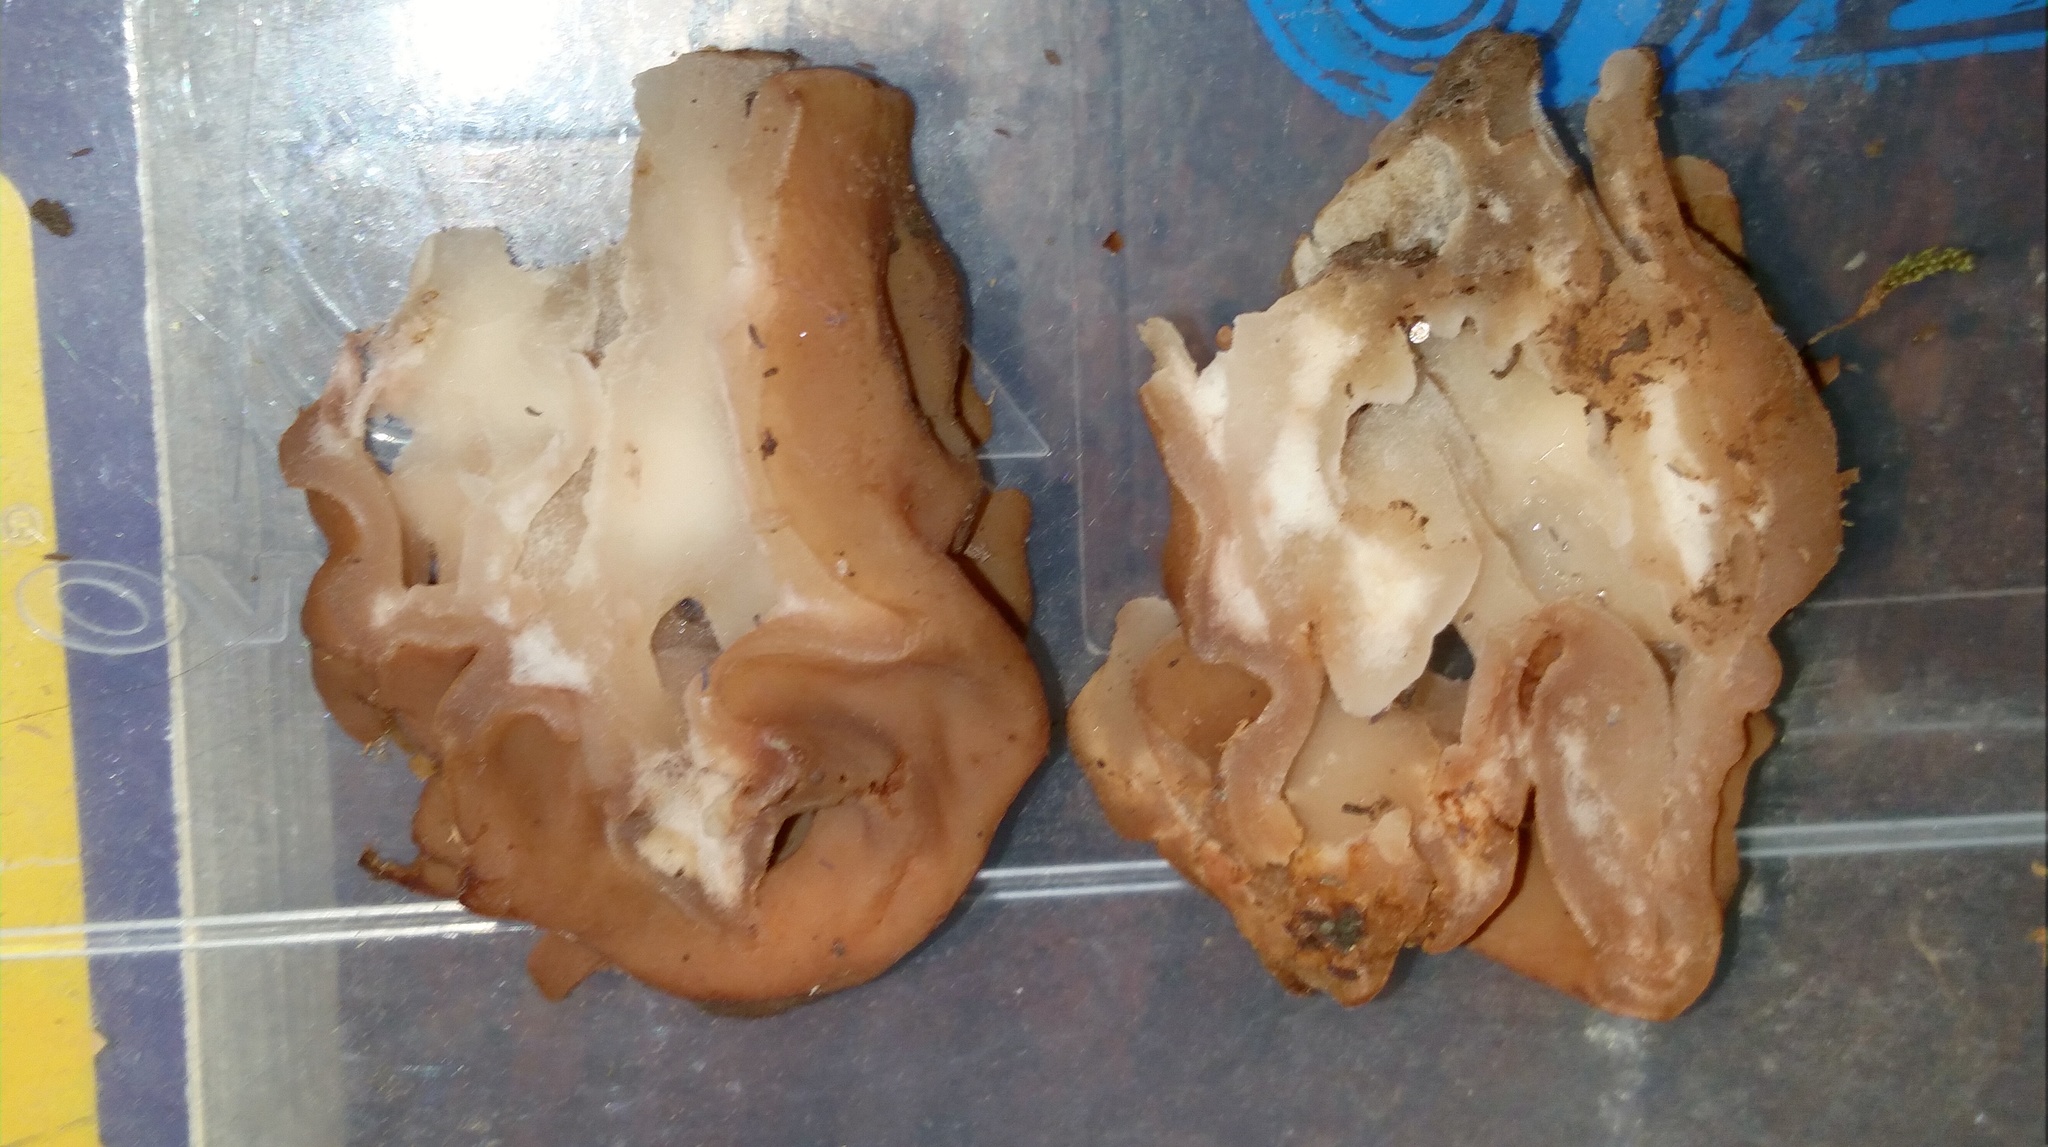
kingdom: Fungi
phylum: Ascomycota
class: Pezizomycetes
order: Pezizales
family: Discinaceae
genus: Gyromitra
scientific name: Gyromitra korfii
